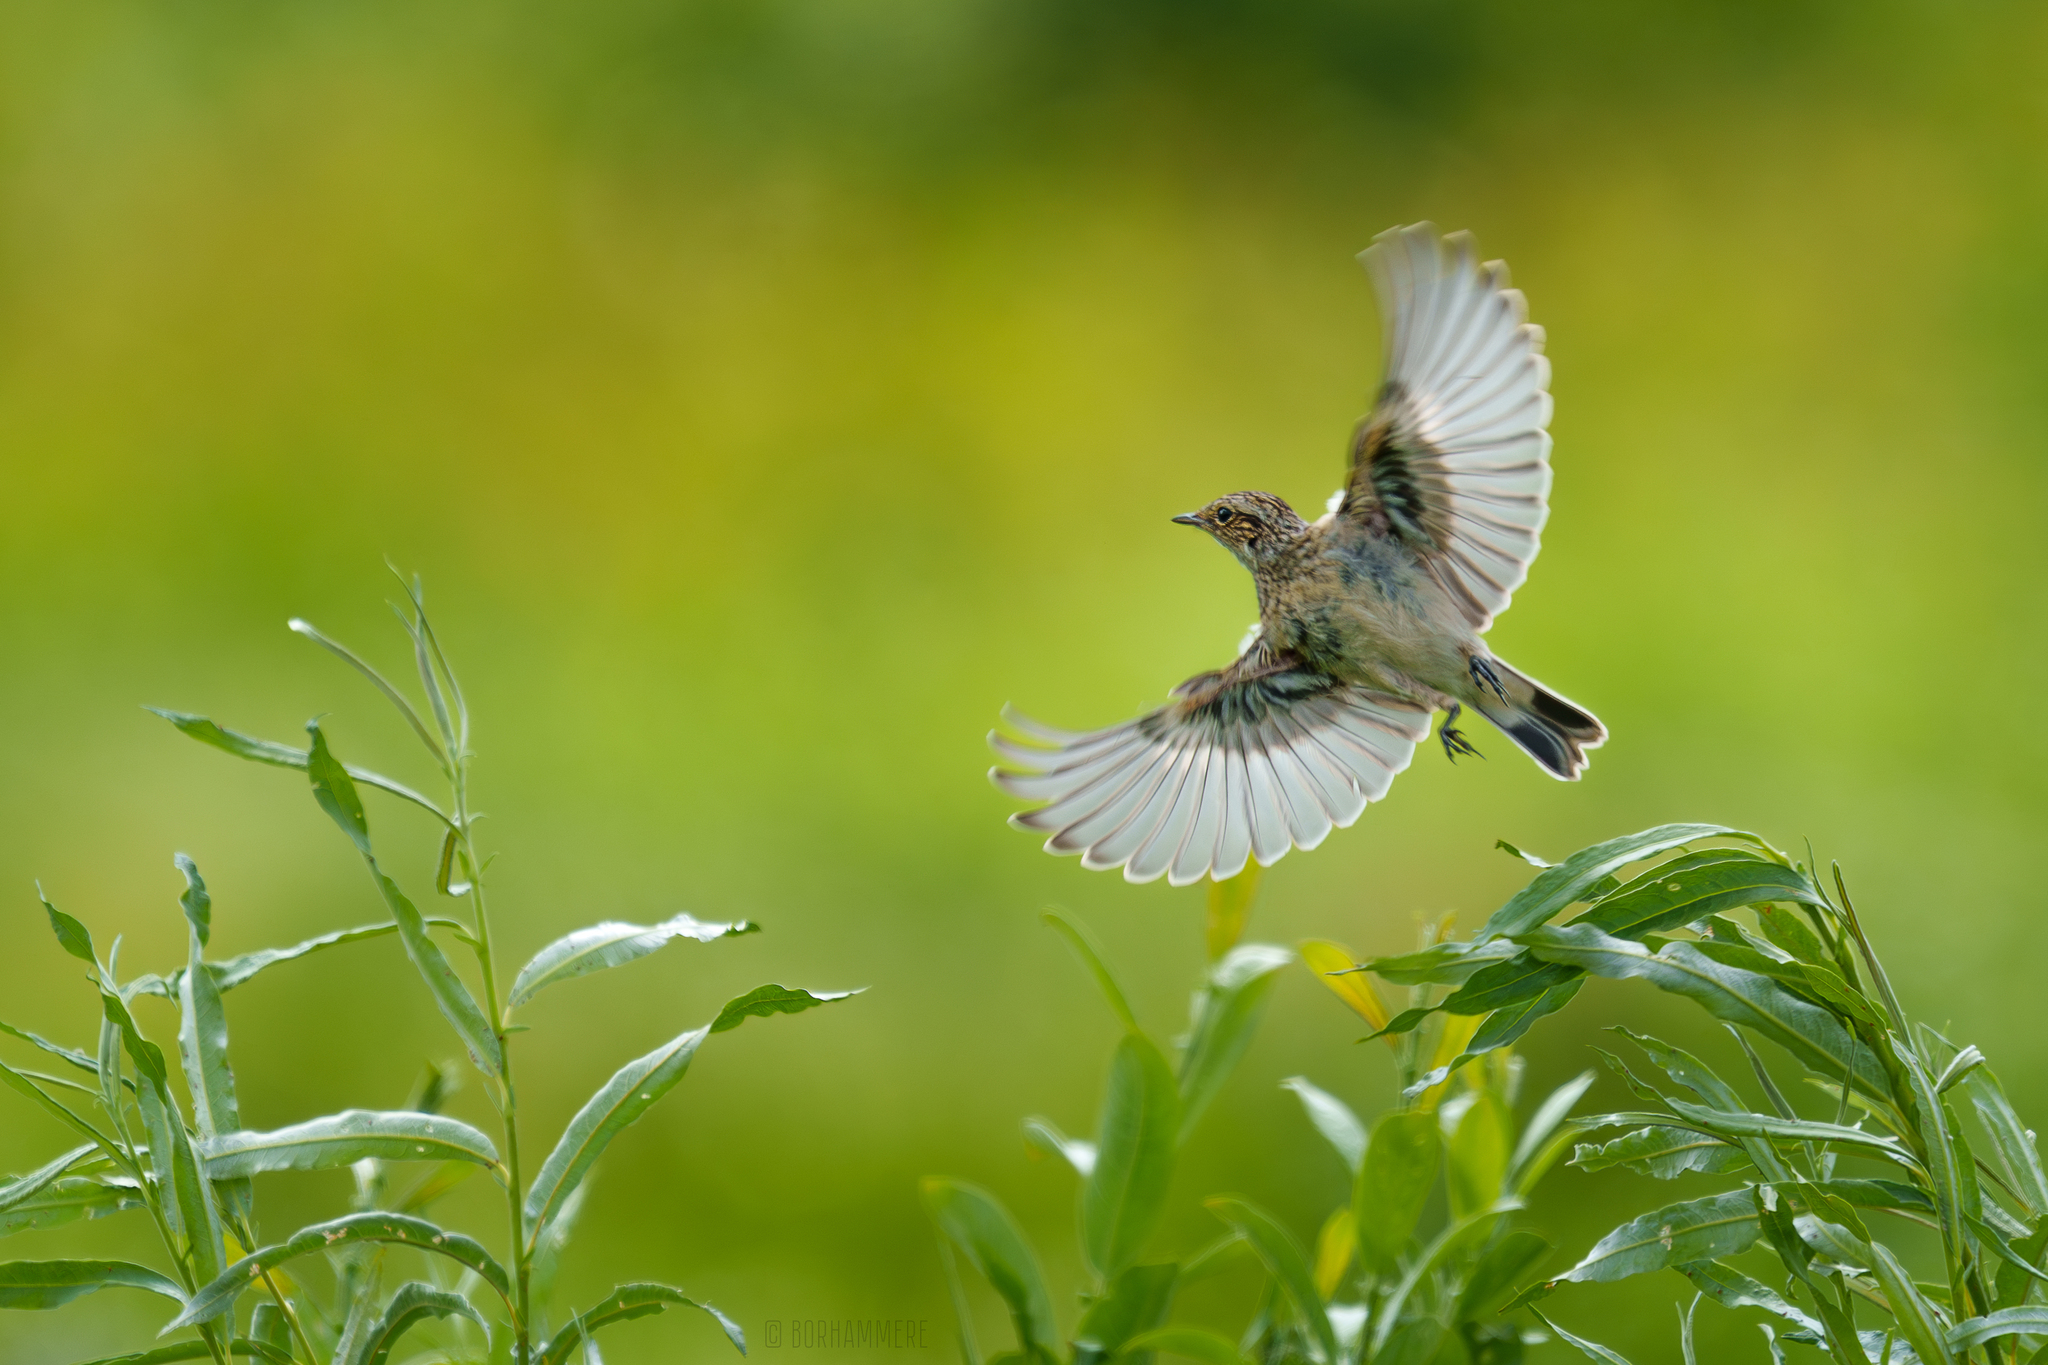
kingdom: Animalia
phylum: Chordata
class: Aves
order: Passeriformes
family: Muscicapidae
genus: Saxicola
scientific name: Saxicola rubetra
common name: Whinchat
